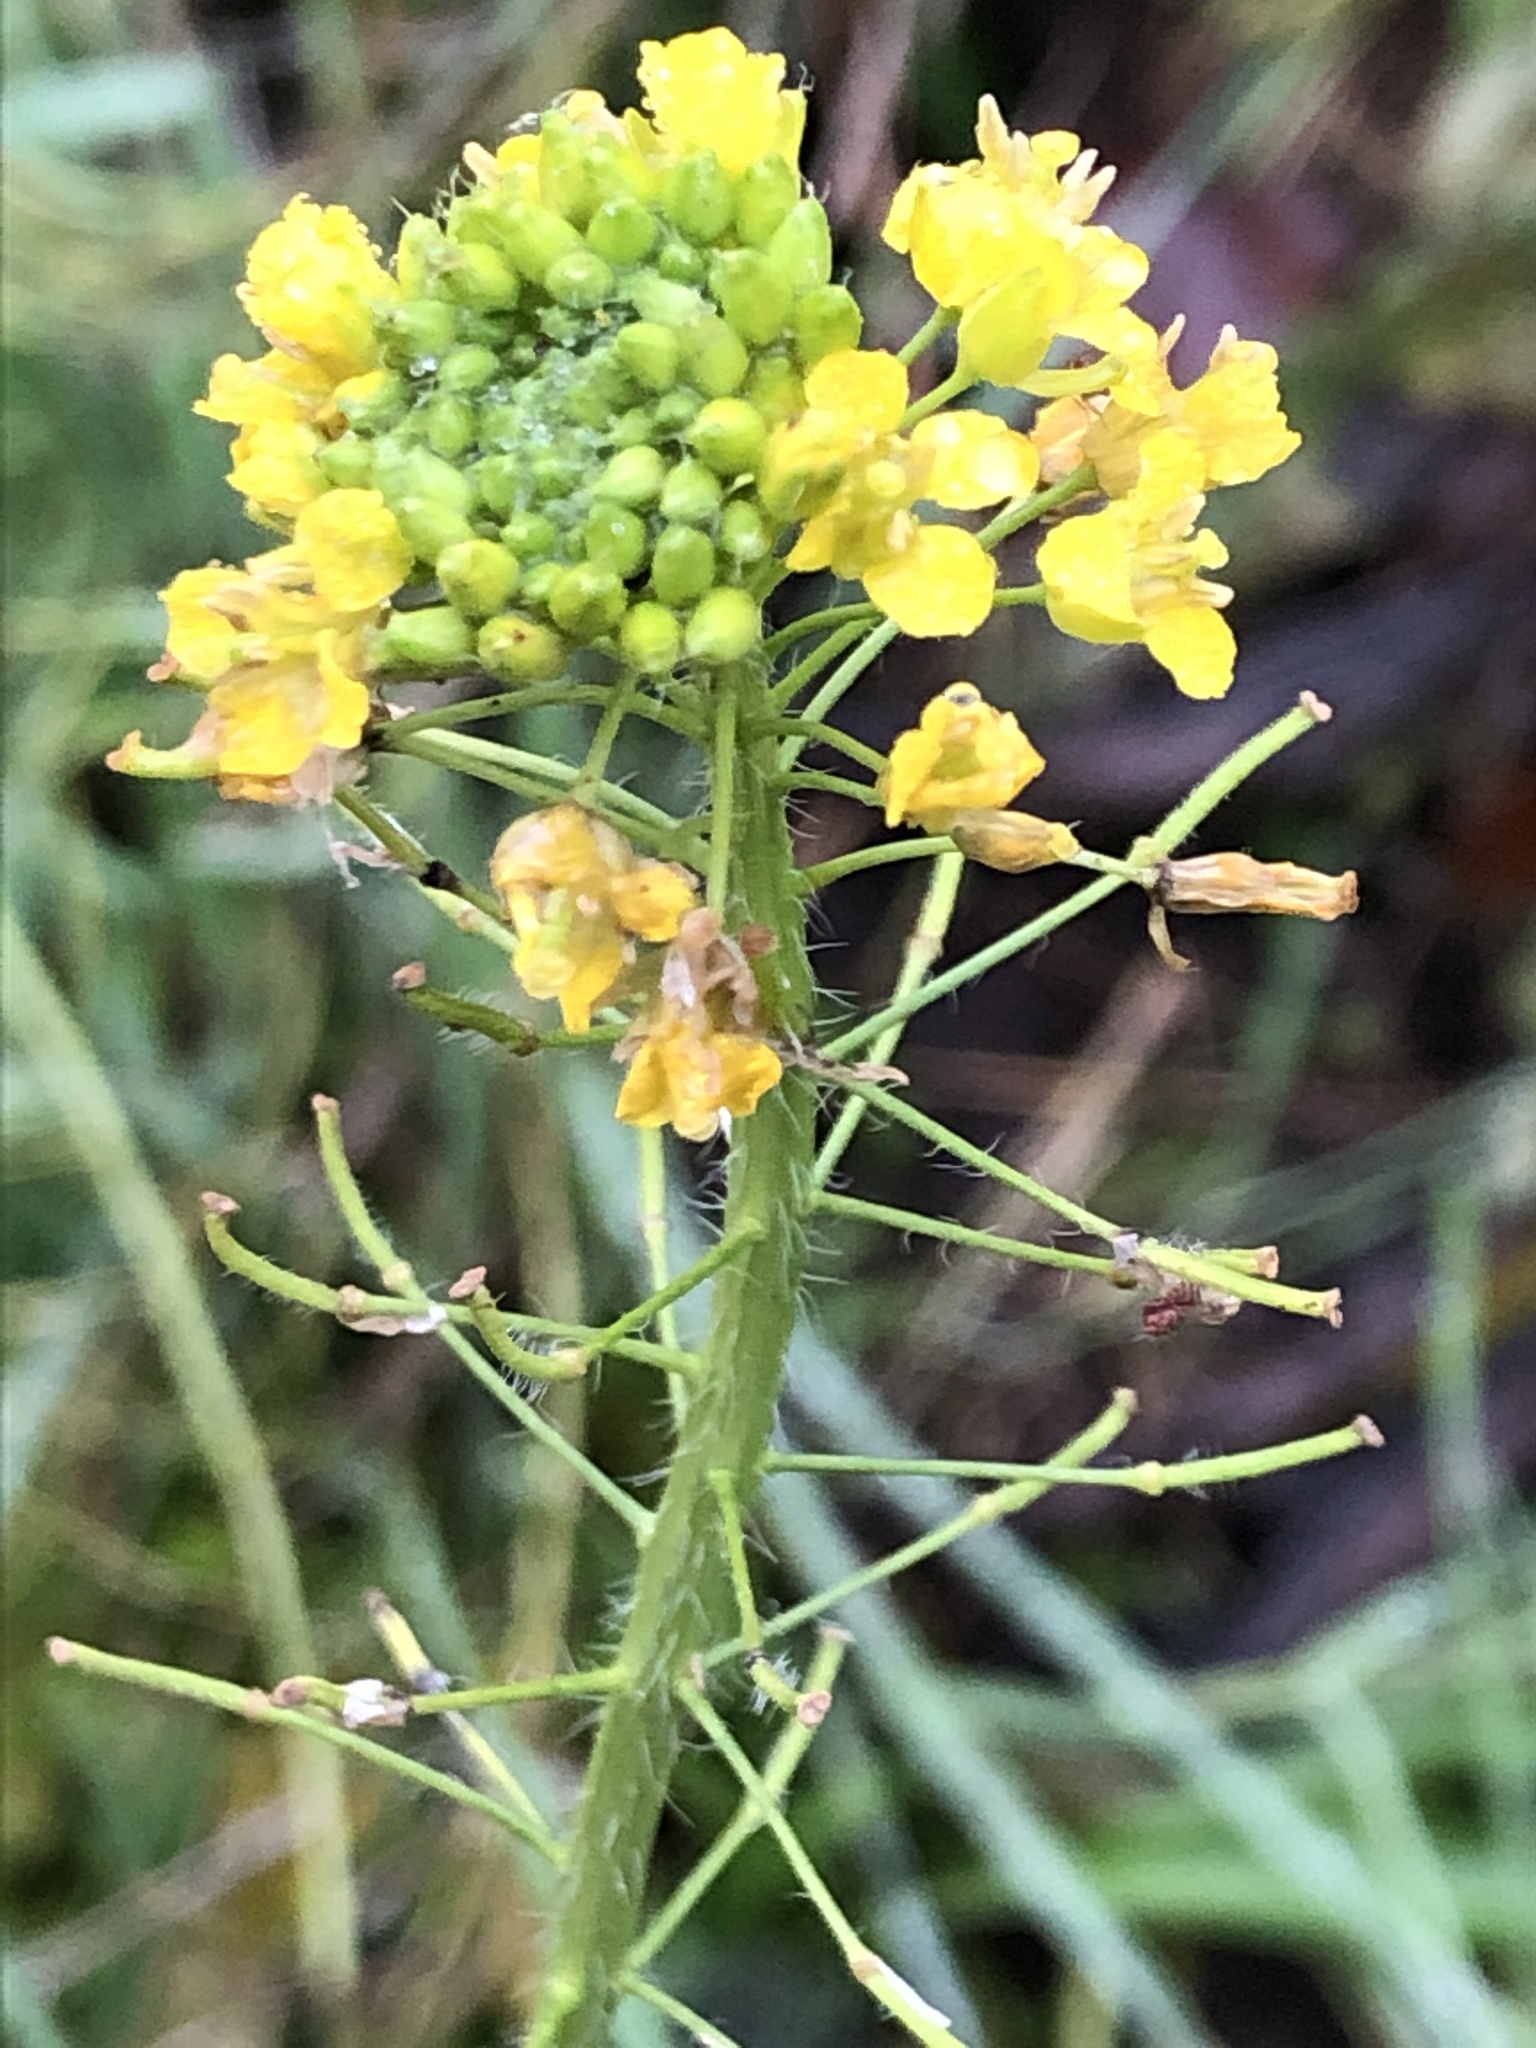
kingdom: Plantae
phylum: Tracheophyta
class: Magnoliopsida
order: Brassicales
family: Brassicaceae
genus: Sisymbrium
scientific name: Sisymbrium loeselii
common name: False london-rocket
